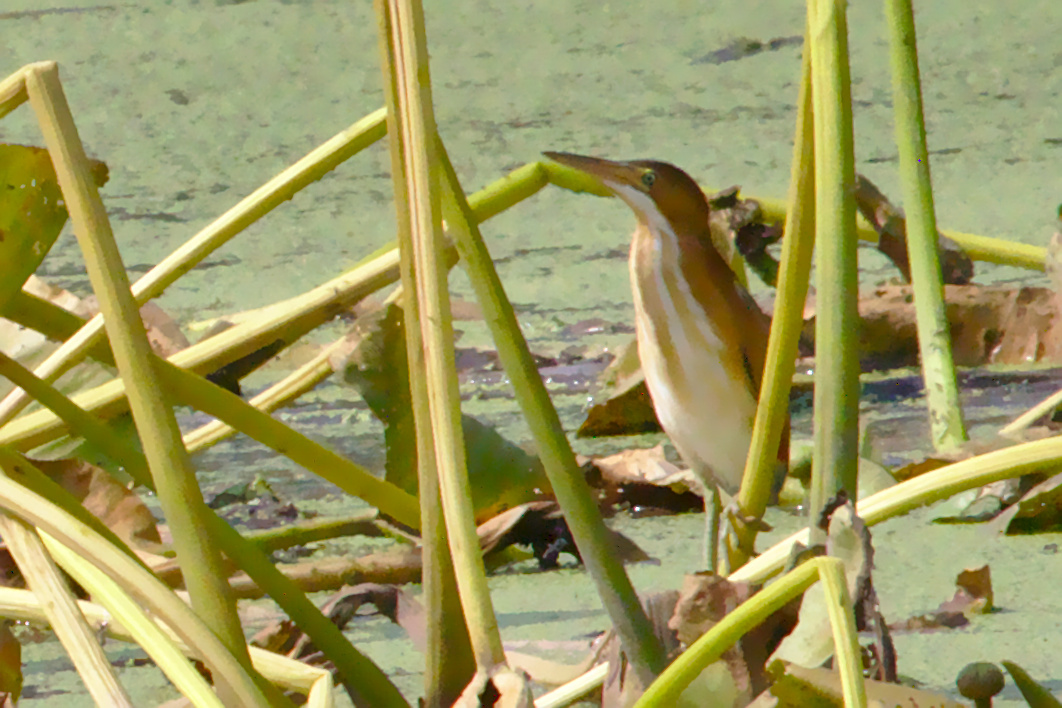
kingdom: Animalia
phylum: Chordata
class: Aves
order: Pelecaniformes
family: Ardeidae
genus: Ixobrychus
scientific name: Ixobrychus exilis
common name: Least bittern
